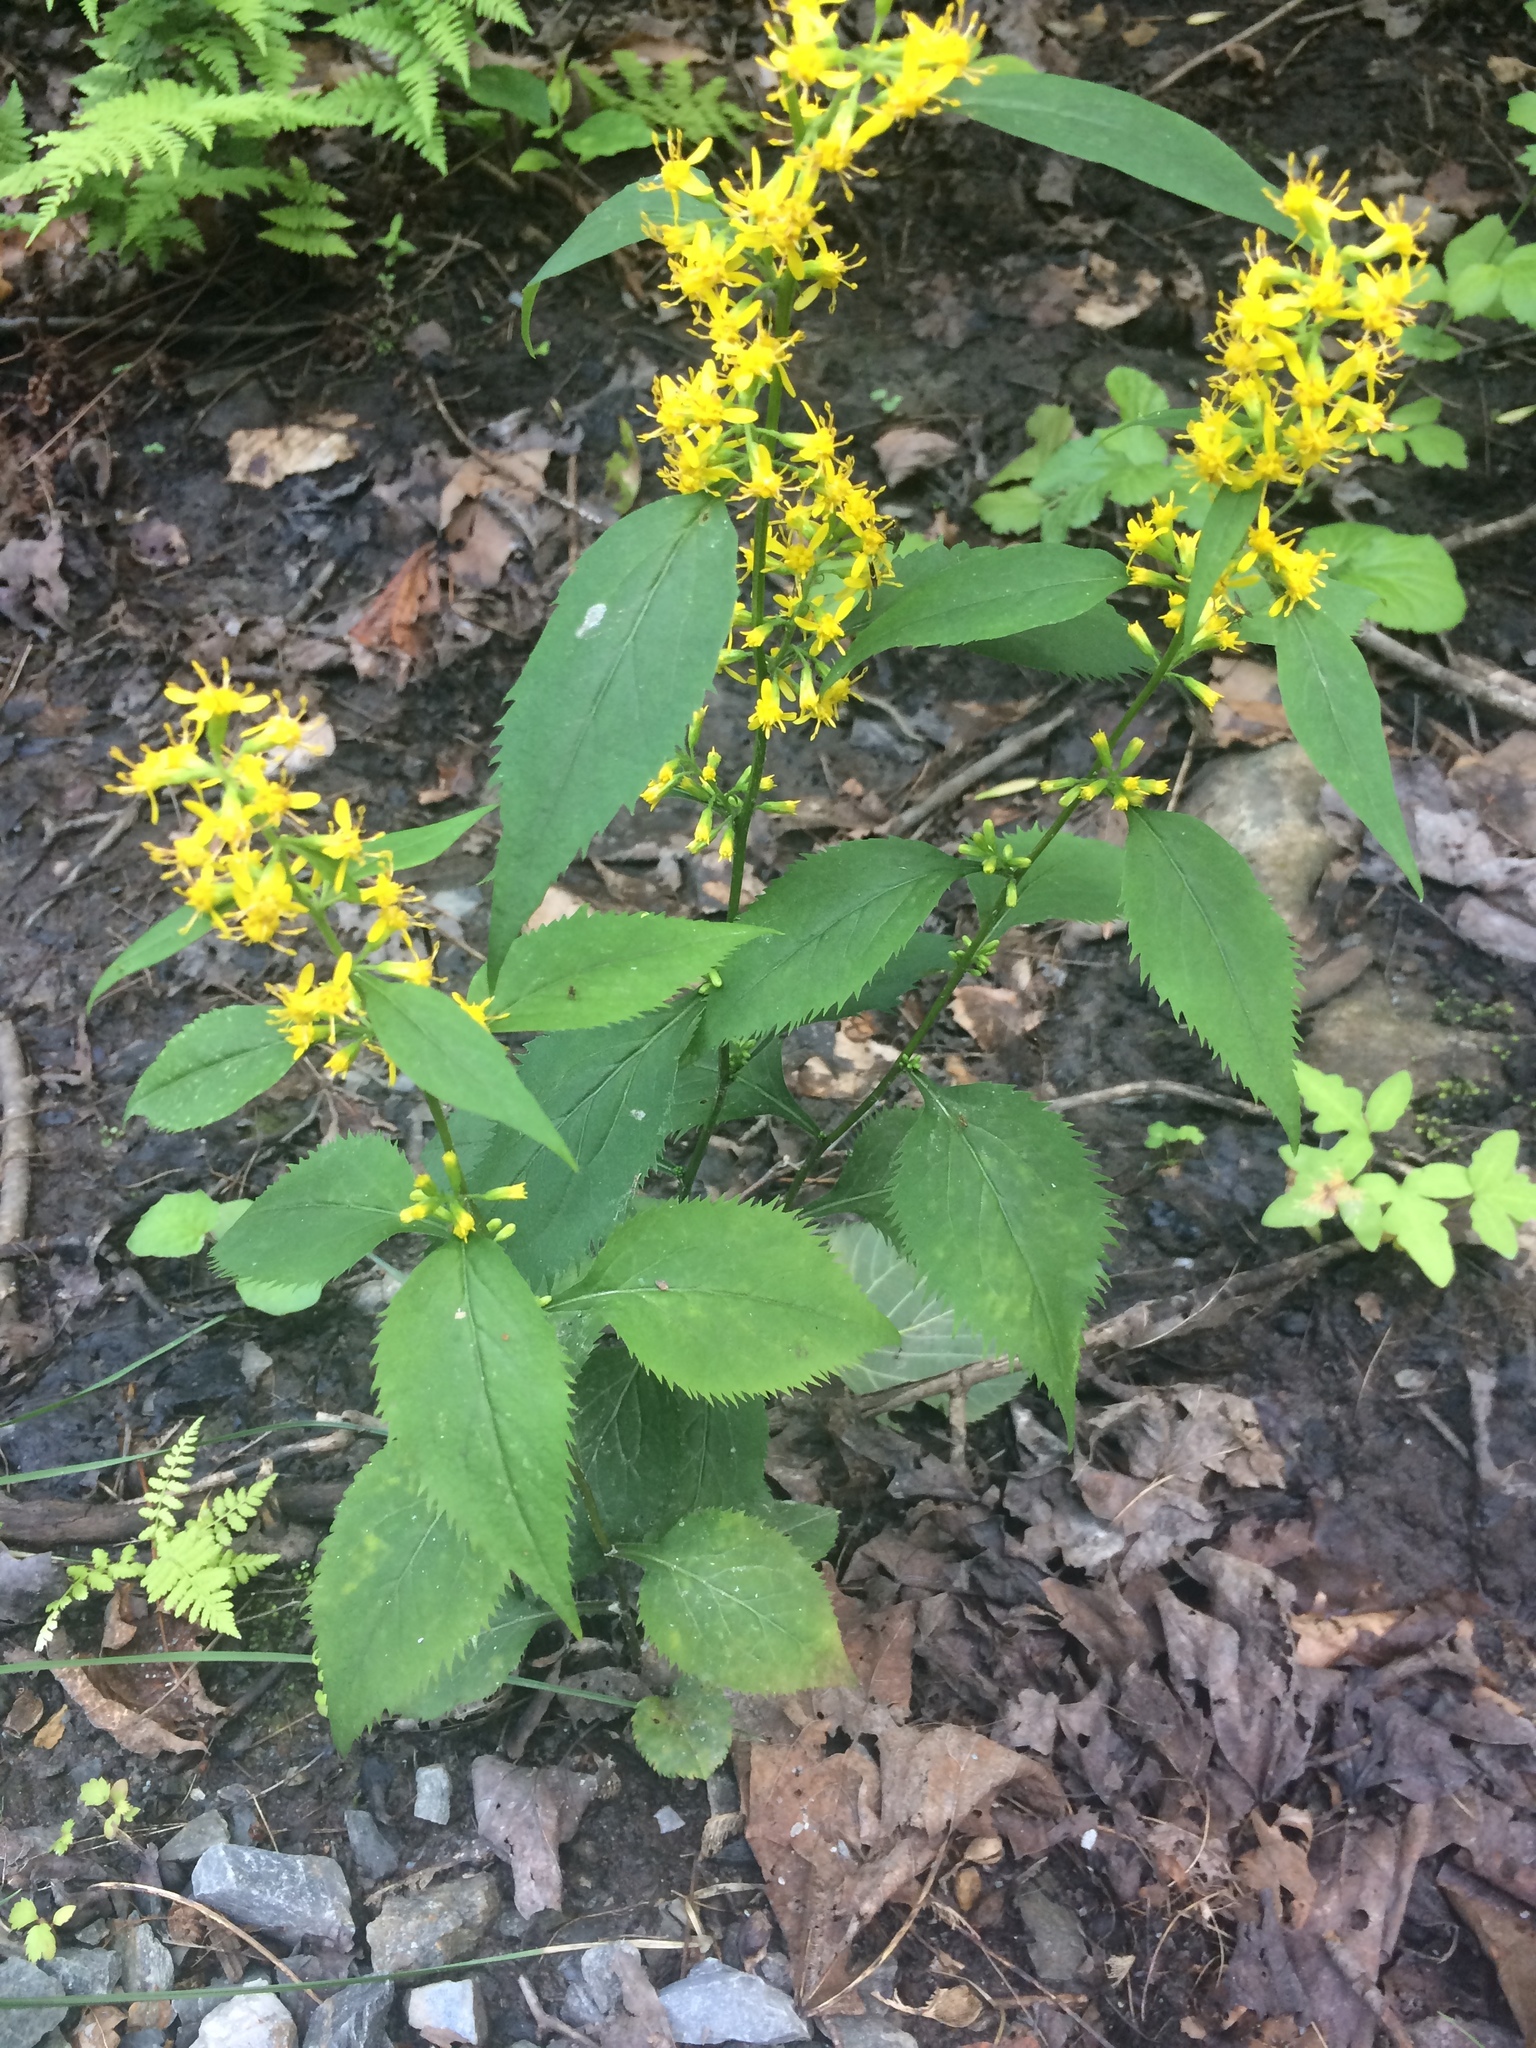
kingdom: Plantae
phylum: Tracheophyta
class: Magnoliopsida
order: Asterales
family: Asteraceae
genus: Solidago
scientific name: Solidago flexicaulis
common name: Zig-zag goldenrod
